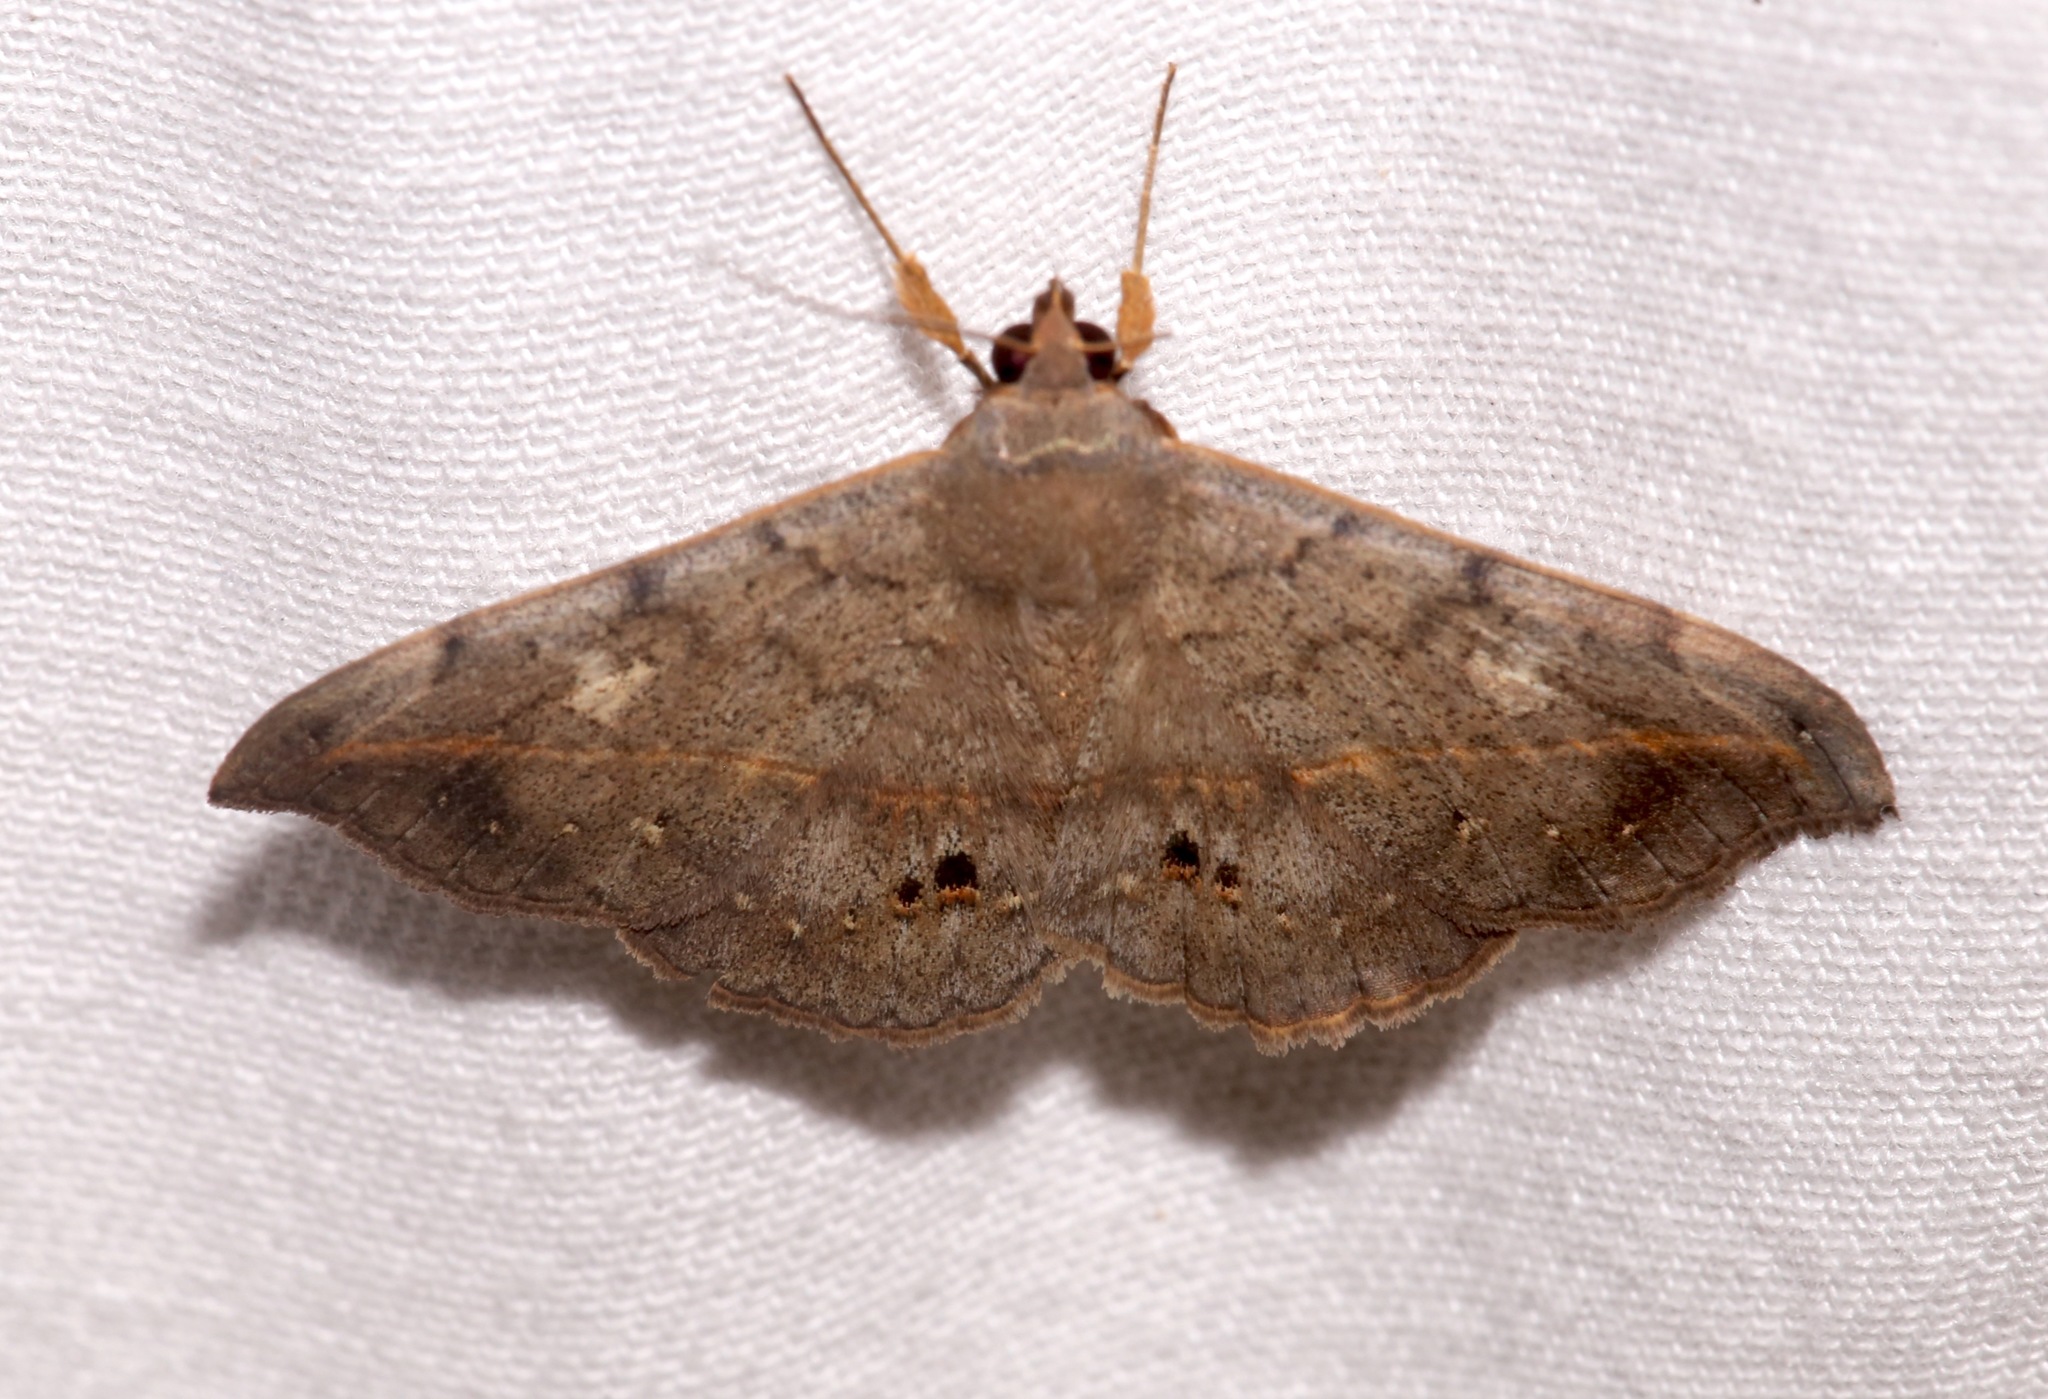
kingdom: Animalia
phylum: Arthropoda
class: Insecta
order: Lepidoptera
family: Erebidae
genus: Anticarsia
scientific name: Anticarsia gemmatalis
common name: Cutworm moth
